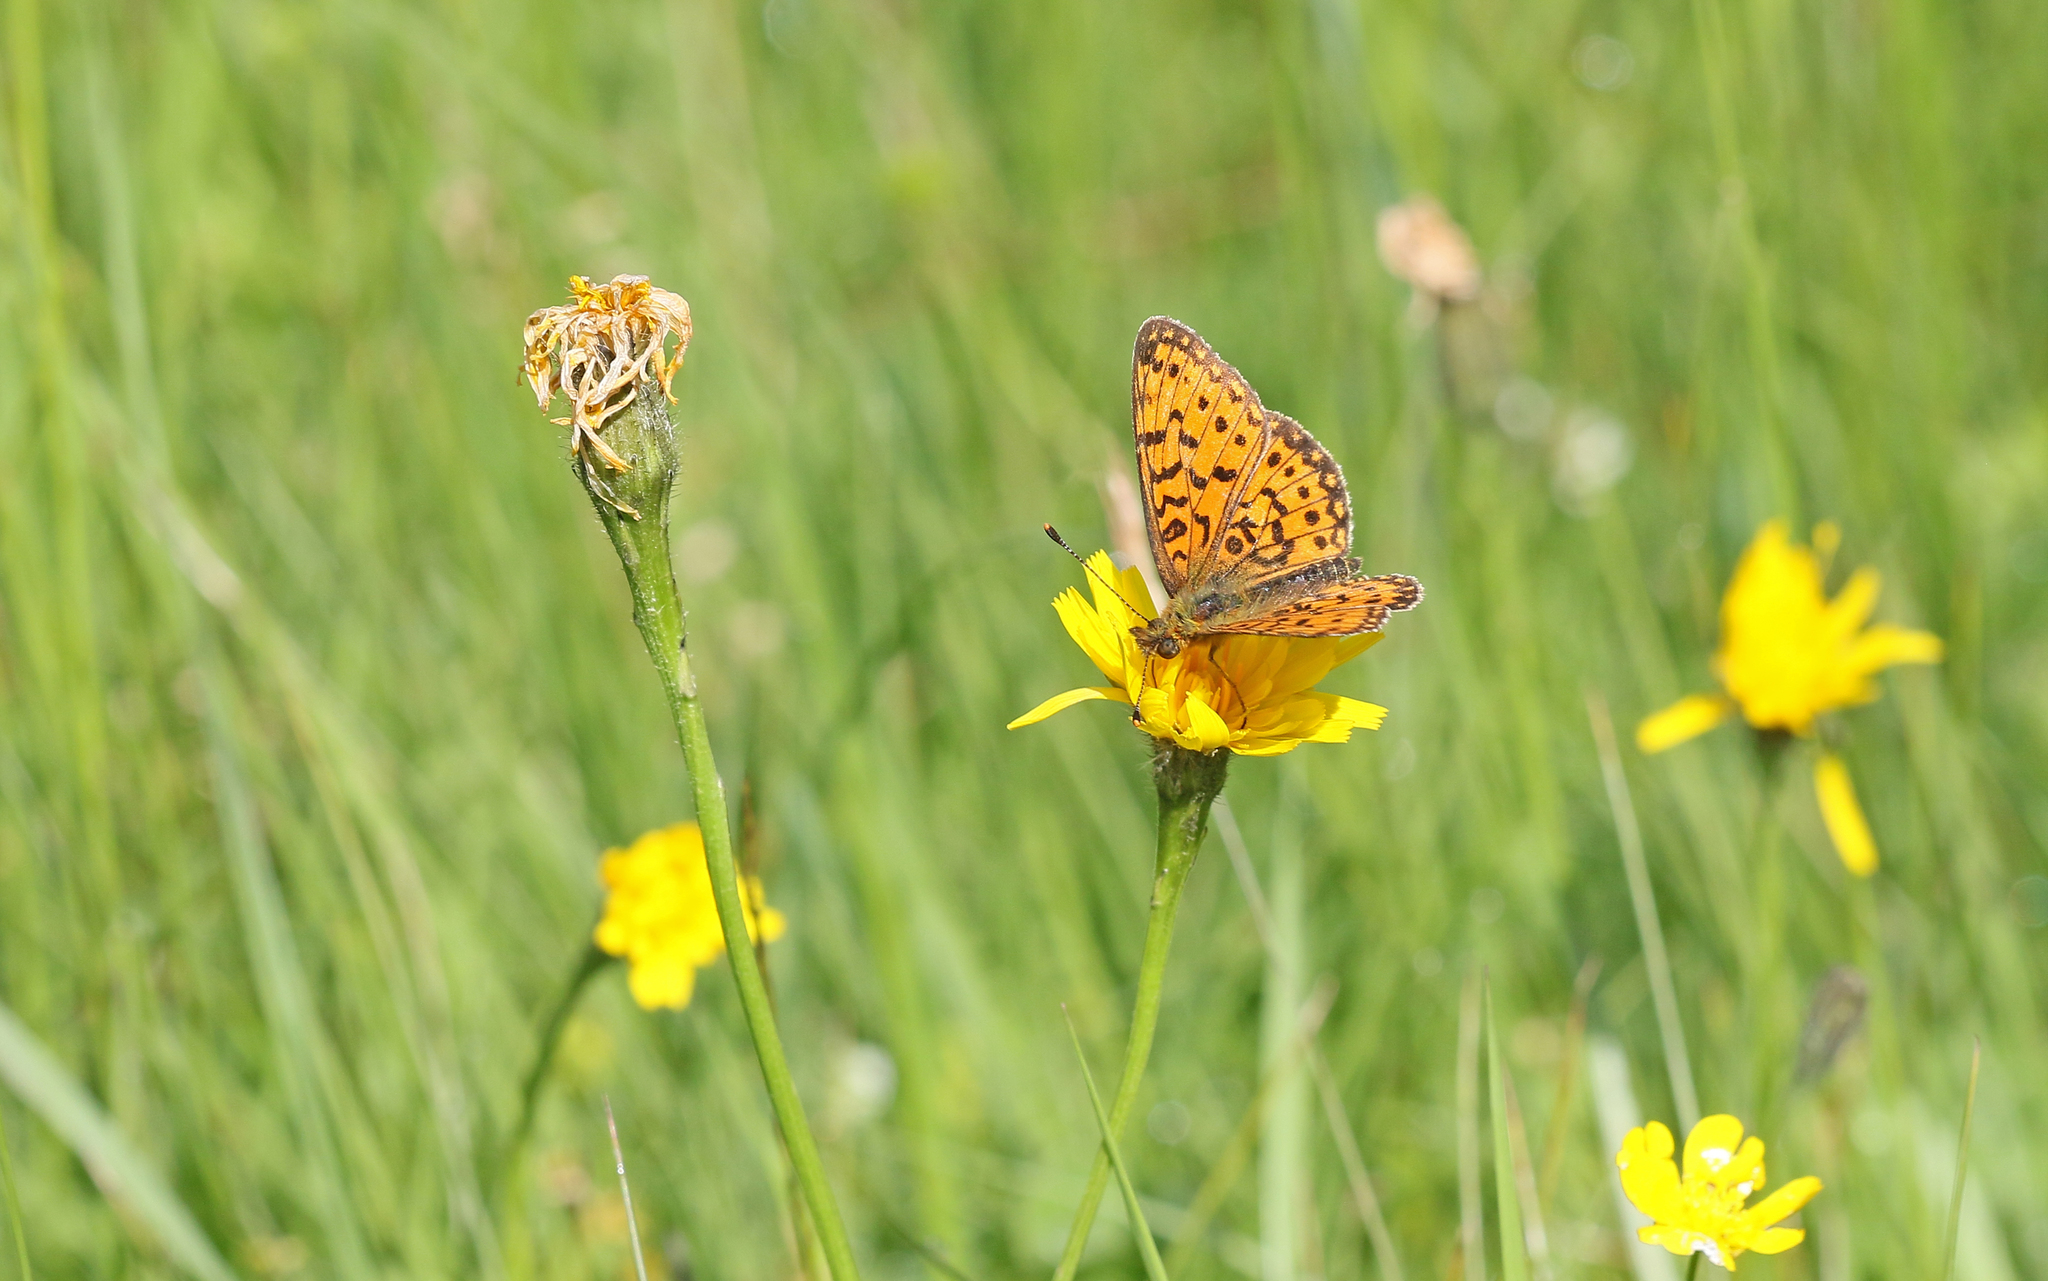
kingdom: Animalia
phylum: Arthropoda
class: Insecta
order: Lepidoptera
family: Nymphalidae
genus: Boloria
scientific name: Boloria selene
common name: Small pearl-bordered fritillary
